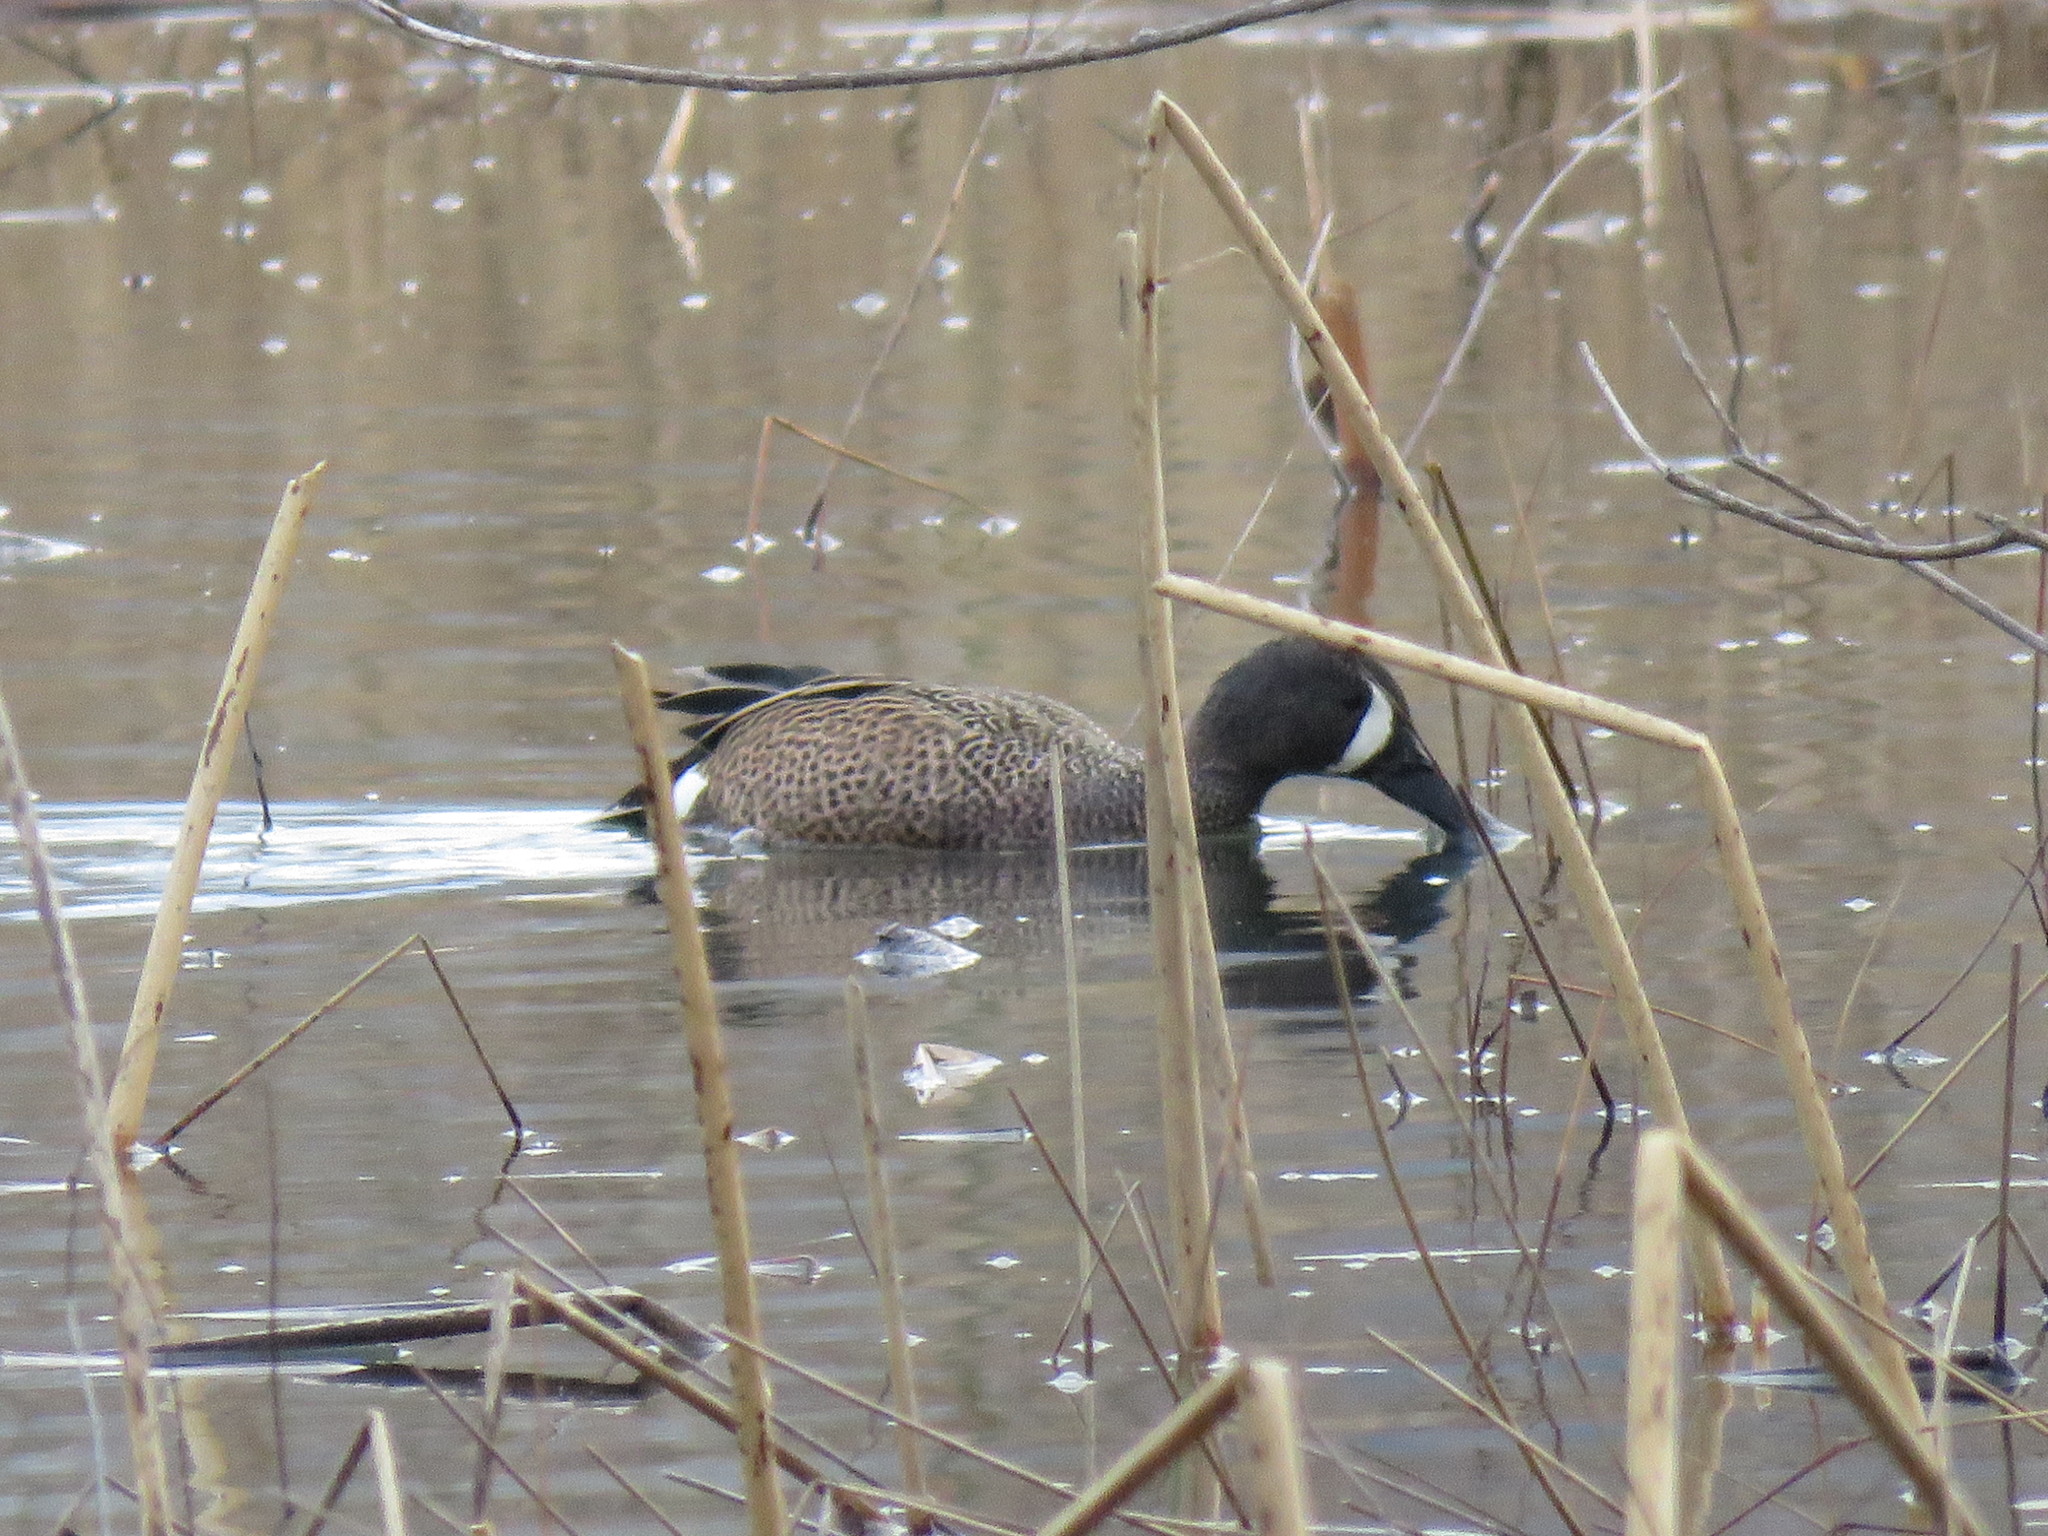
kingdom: Animalia
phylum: Chordata
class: Aves
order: Anseriformes
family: Anatidae
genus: Spatula
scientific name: Spatula discors
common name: Blue-winged teal
